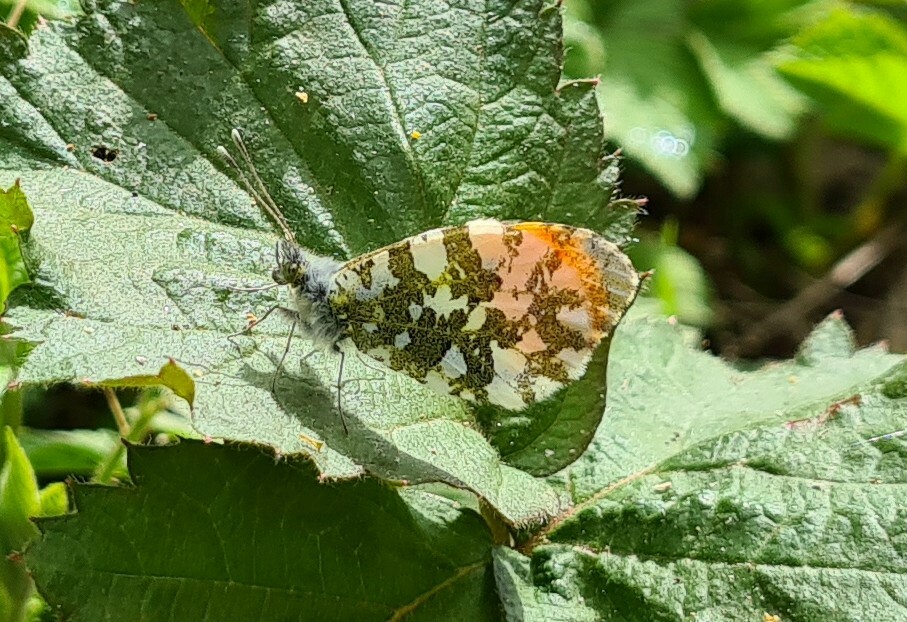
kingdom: Animalia
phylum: Arthropoda
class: Insecta
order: Lepidoptera
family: Pieridae
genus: Anthocharis
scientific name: Anthocharis cardamines
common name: Orange-tip
